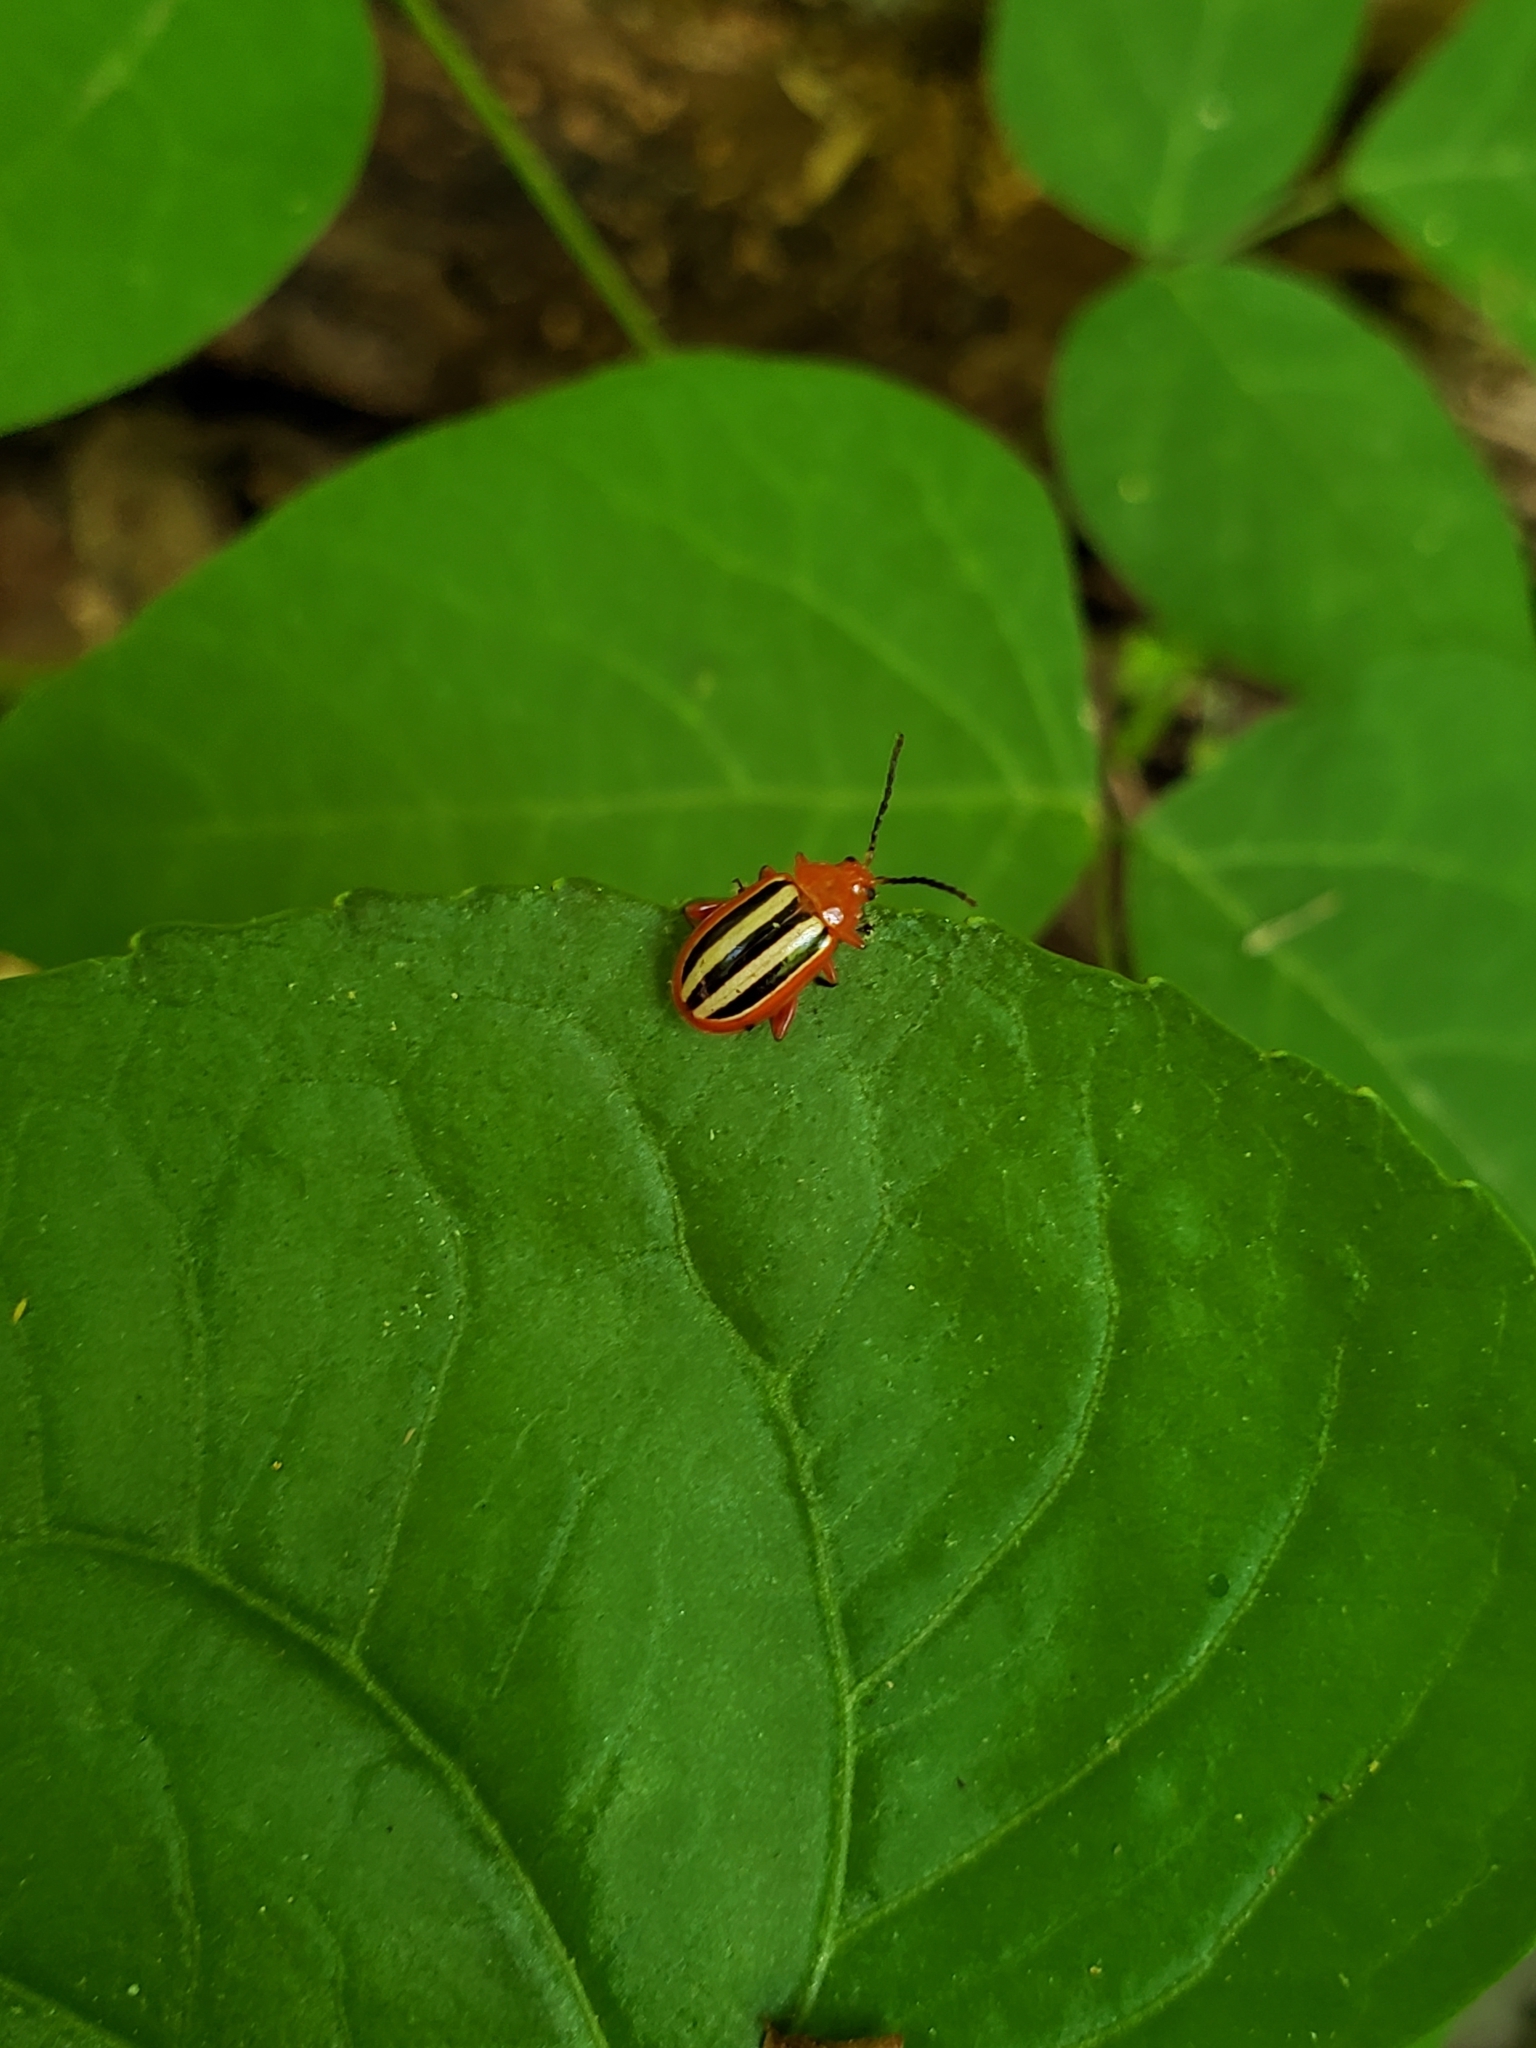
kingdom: Animalia
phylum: Arthropoda
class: Insecta
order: Coleoptera
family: Chrysomelidae
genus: Disonycha
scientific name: Disonycha discoidea
